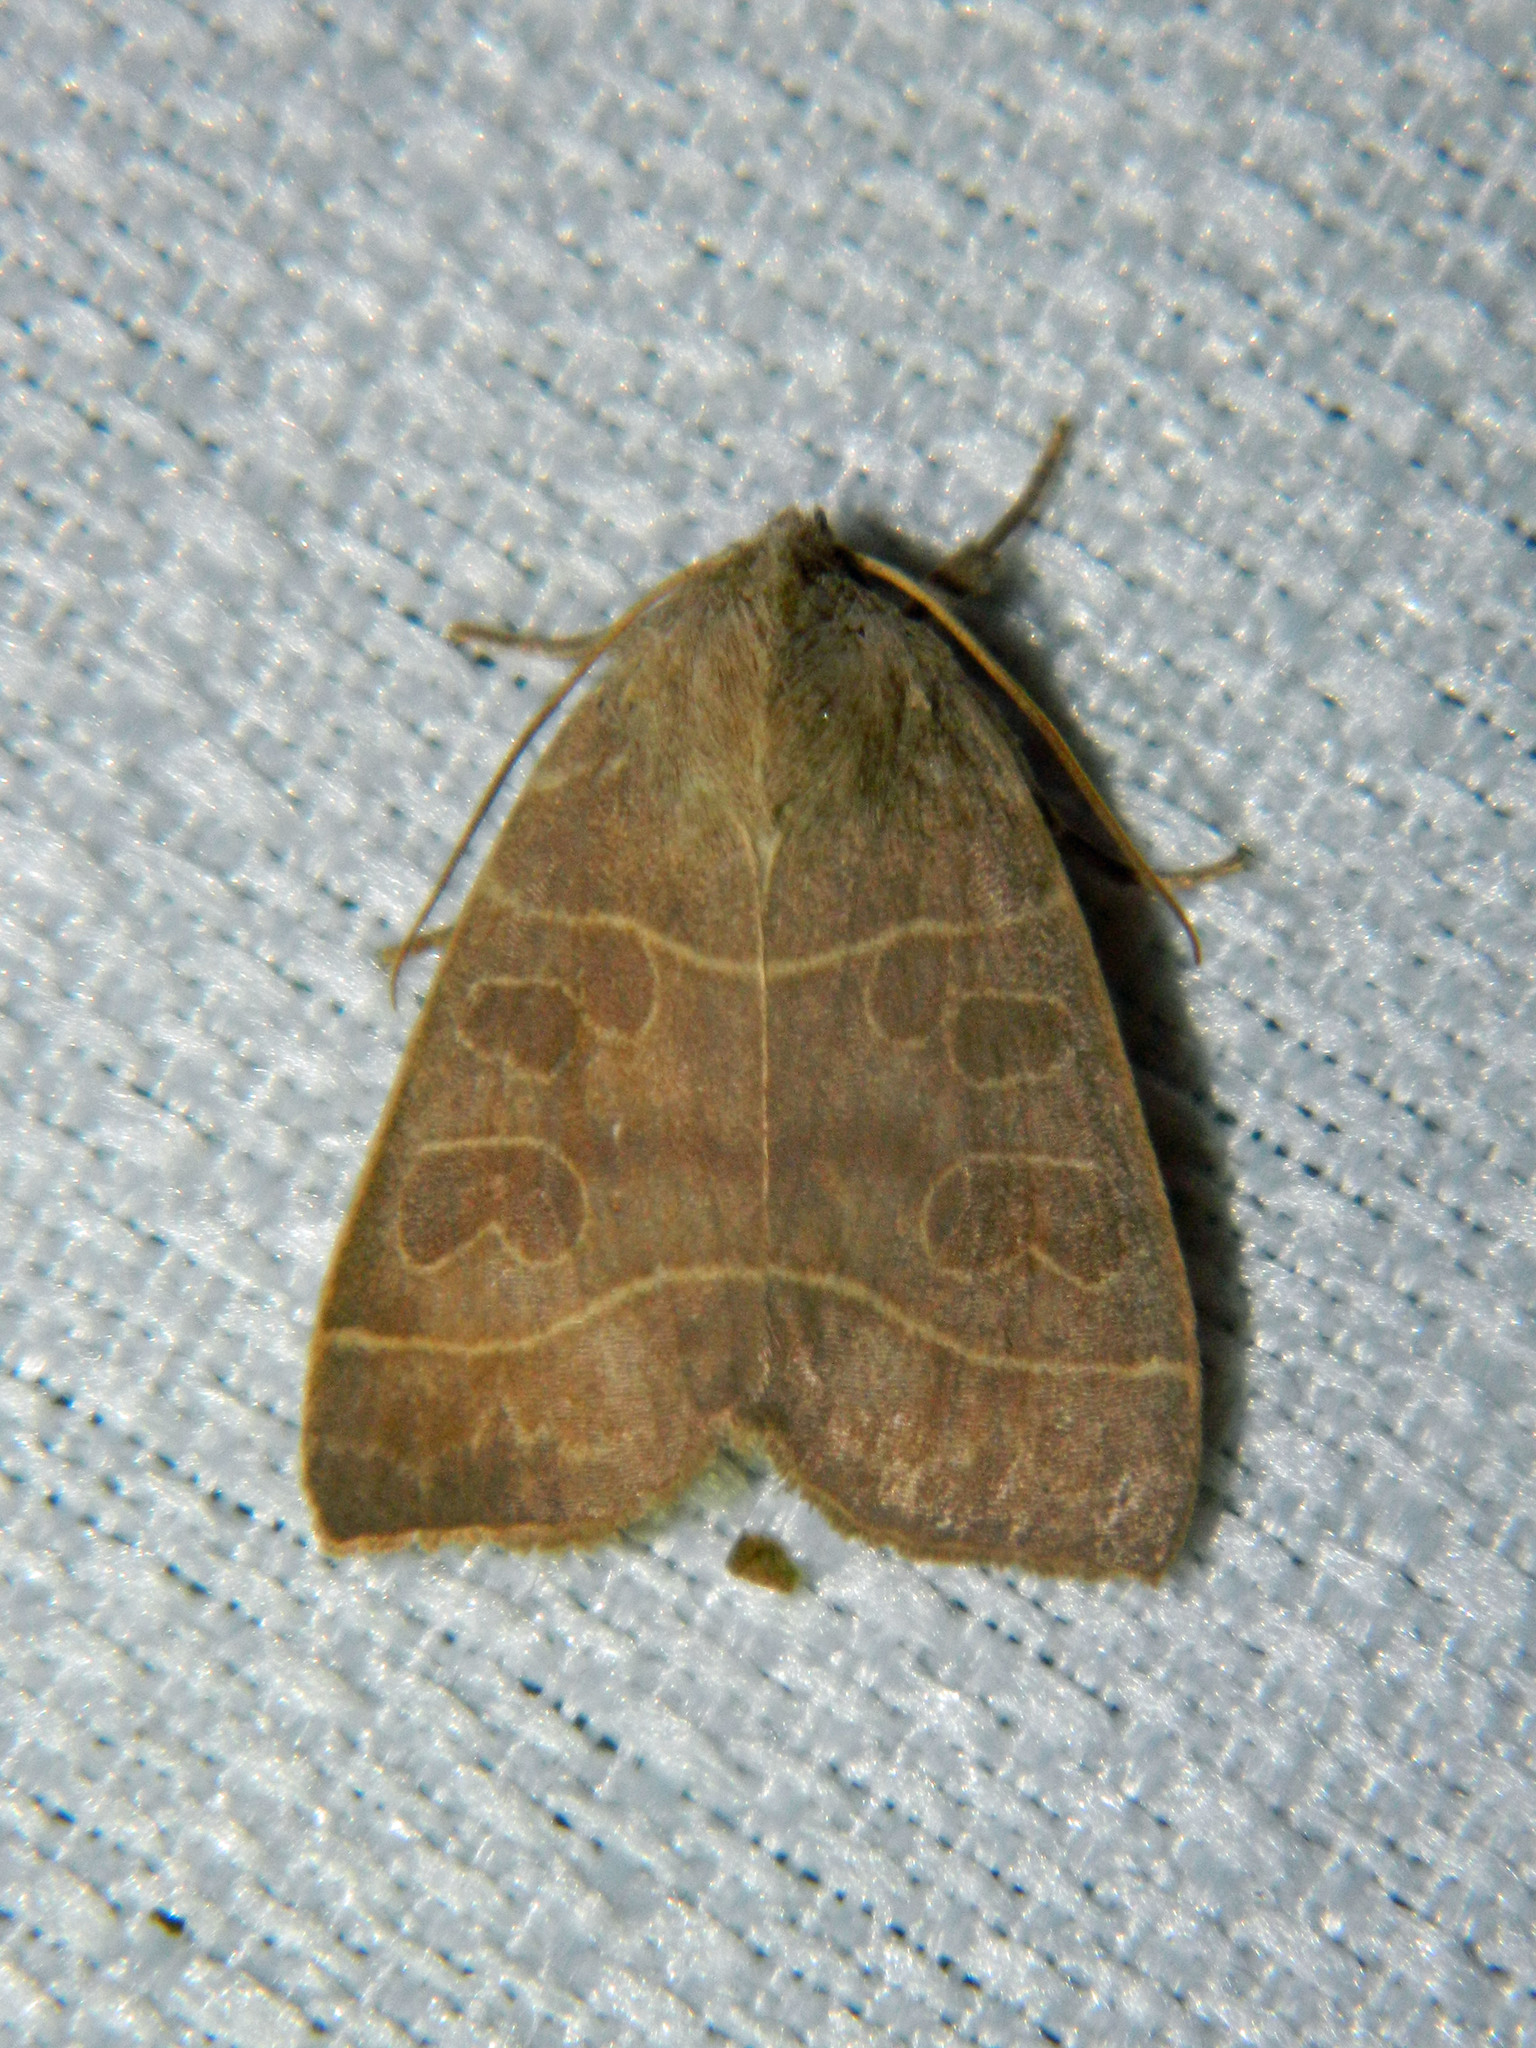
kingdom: Animalia
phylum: Arthropoda
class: Insecta
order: Lepidoptera
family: Noctuidae
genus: Ipimorpha
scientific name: Ipimorpha pleonectusa
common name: Even-lined sallow
